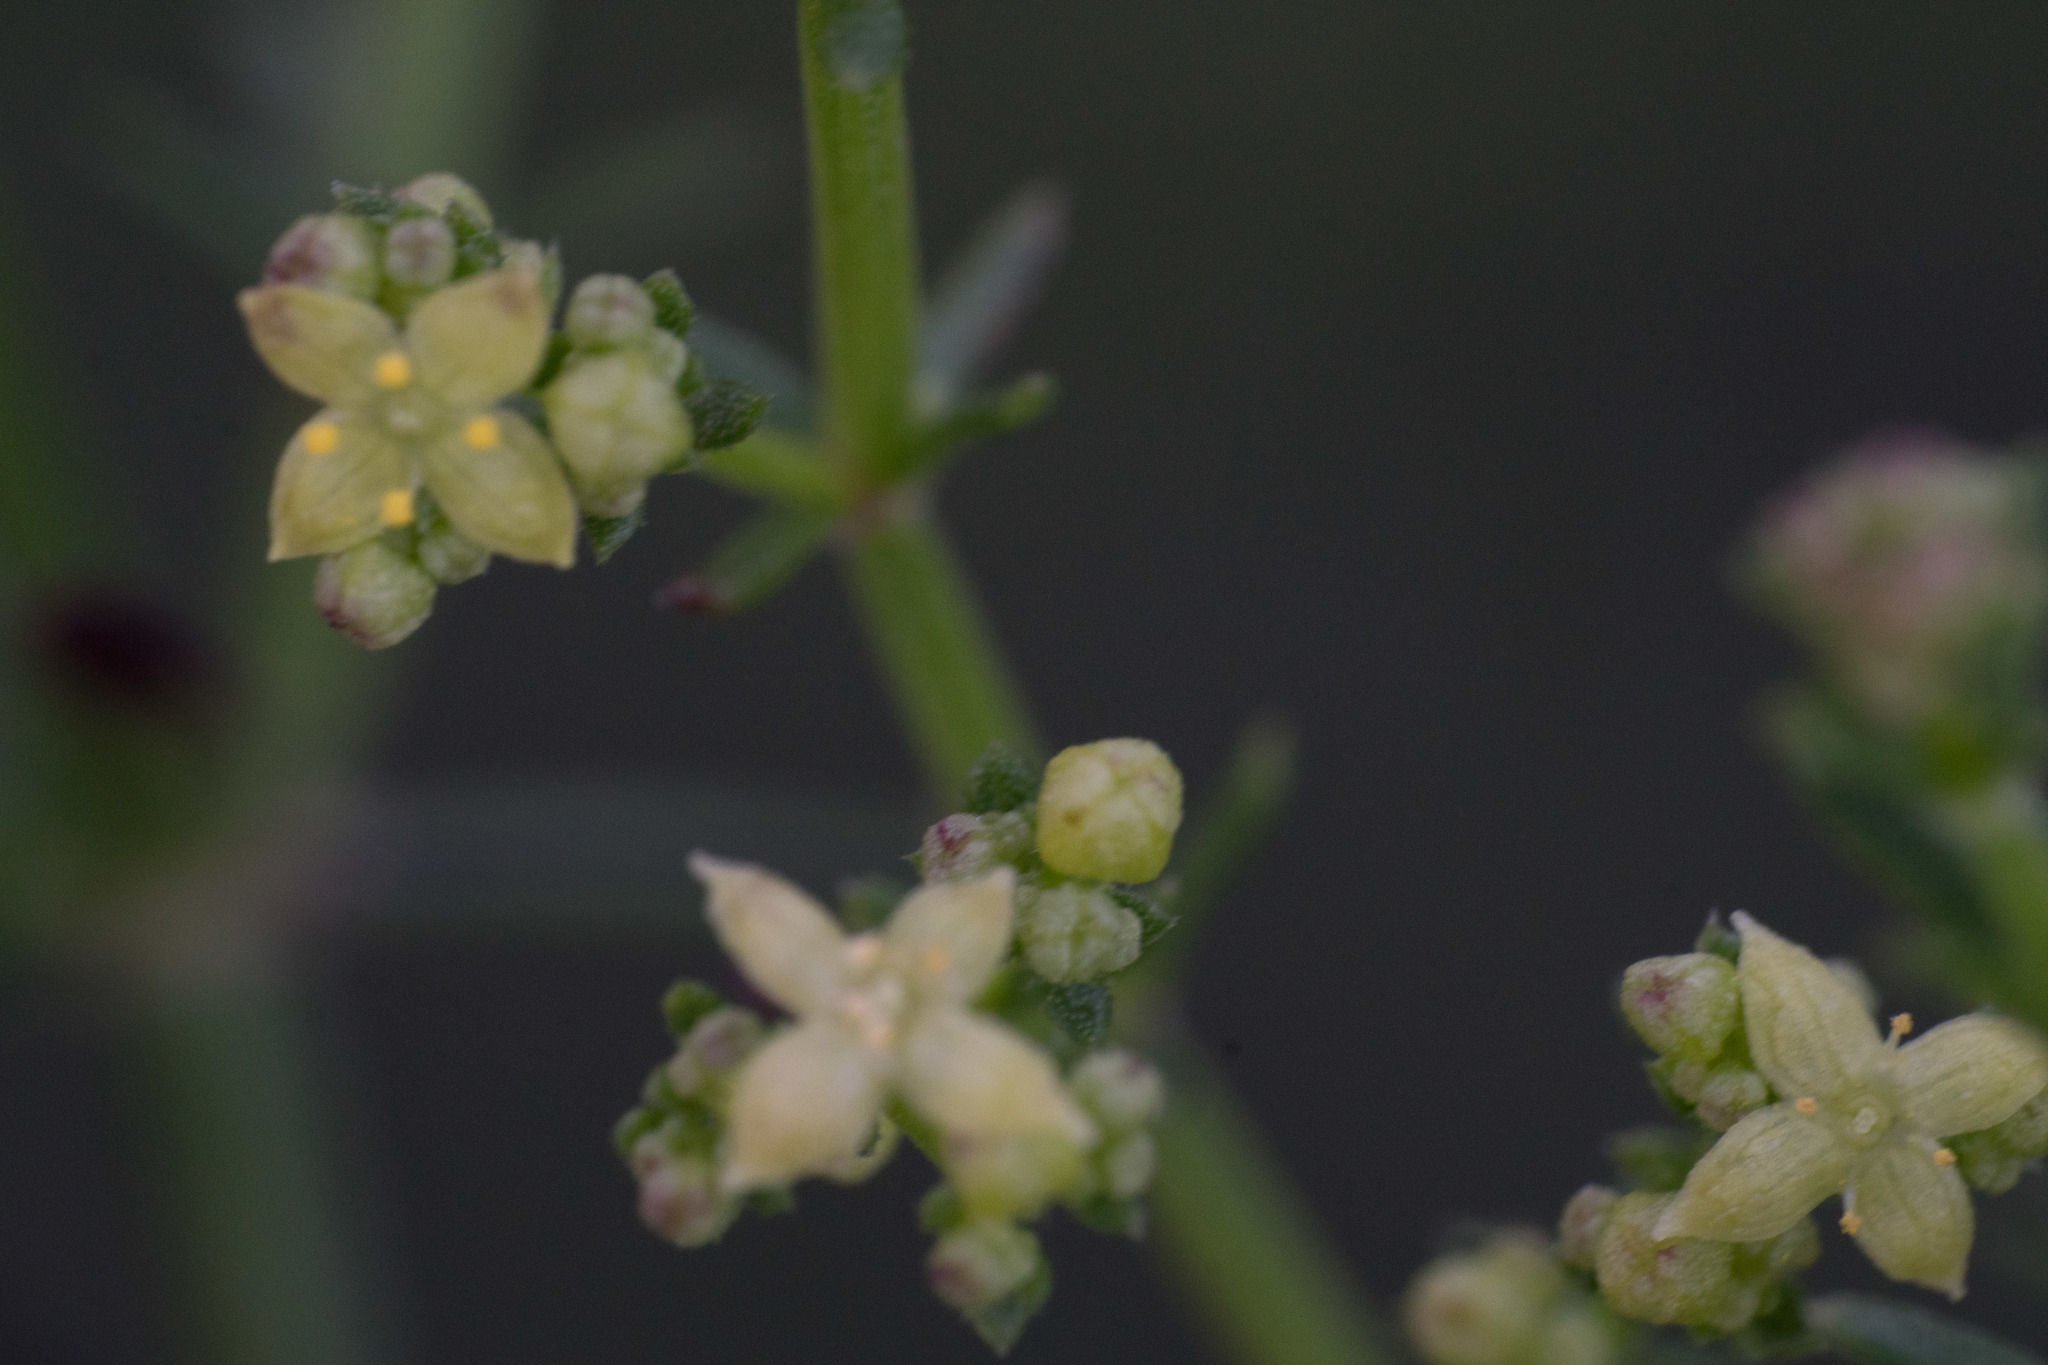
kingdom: Plantae
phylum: Tracheophyta
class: Magnoliopsida
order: Gentianales
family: Rubiaceae
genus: Galium
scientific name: Galium angustifolium
